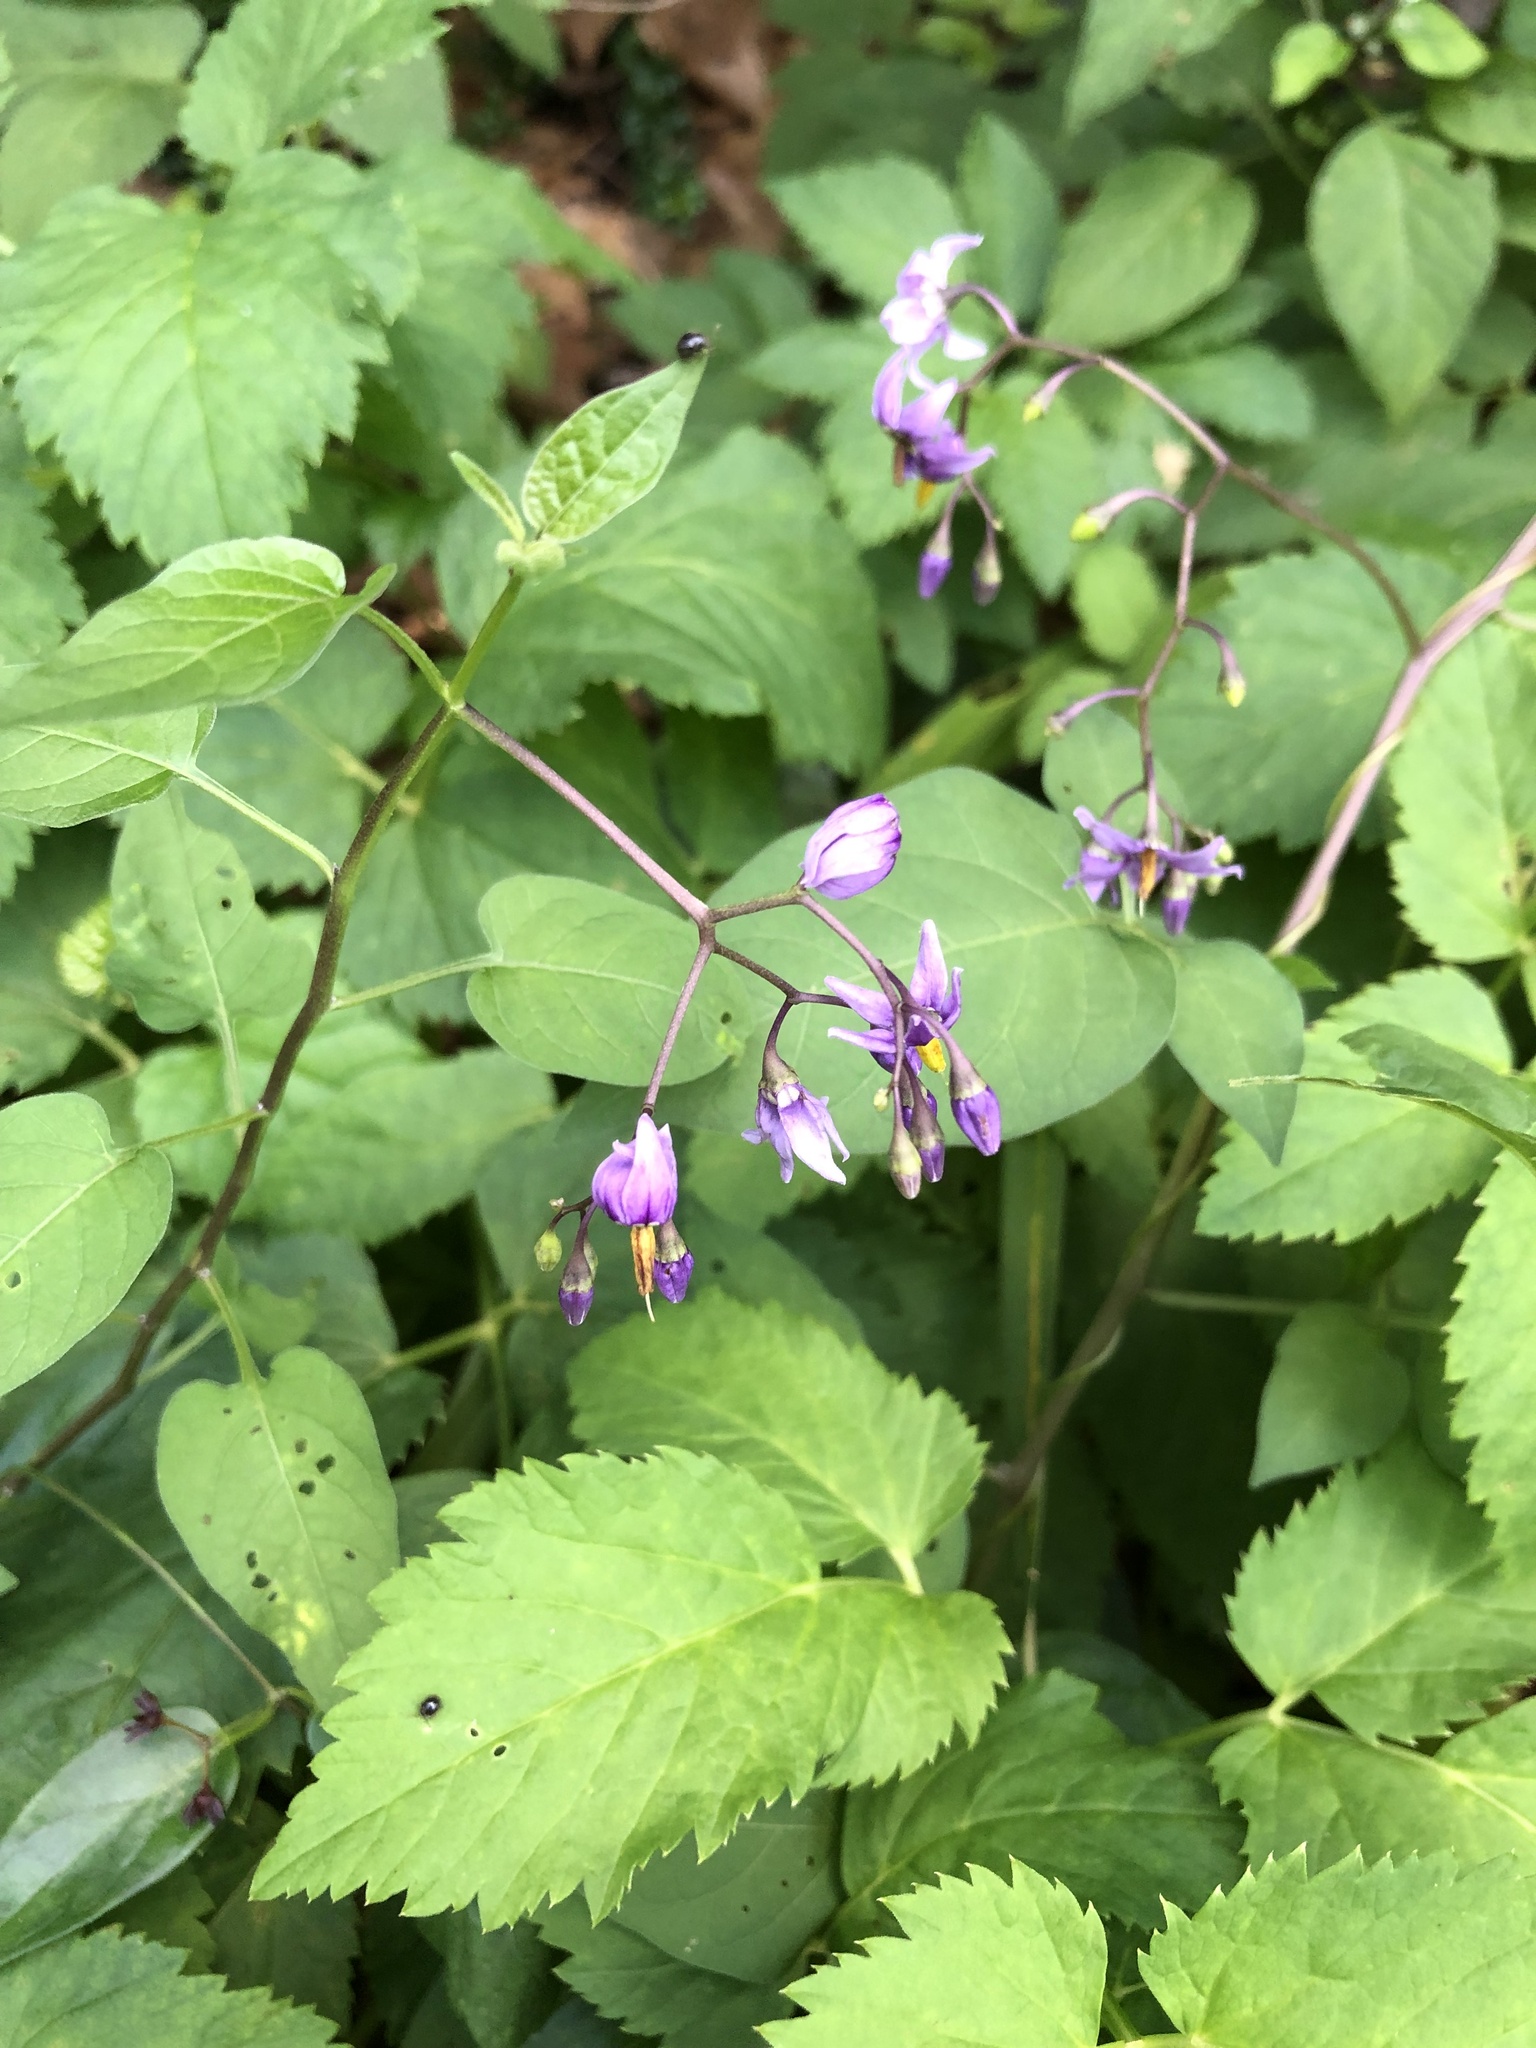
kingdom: Plantae
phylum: Tracheophyta
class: Magnoliopsida
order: Solanales
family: Solanaceae
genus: Solanum
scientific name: Solanum dulcamara
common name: Climbing nightshade
